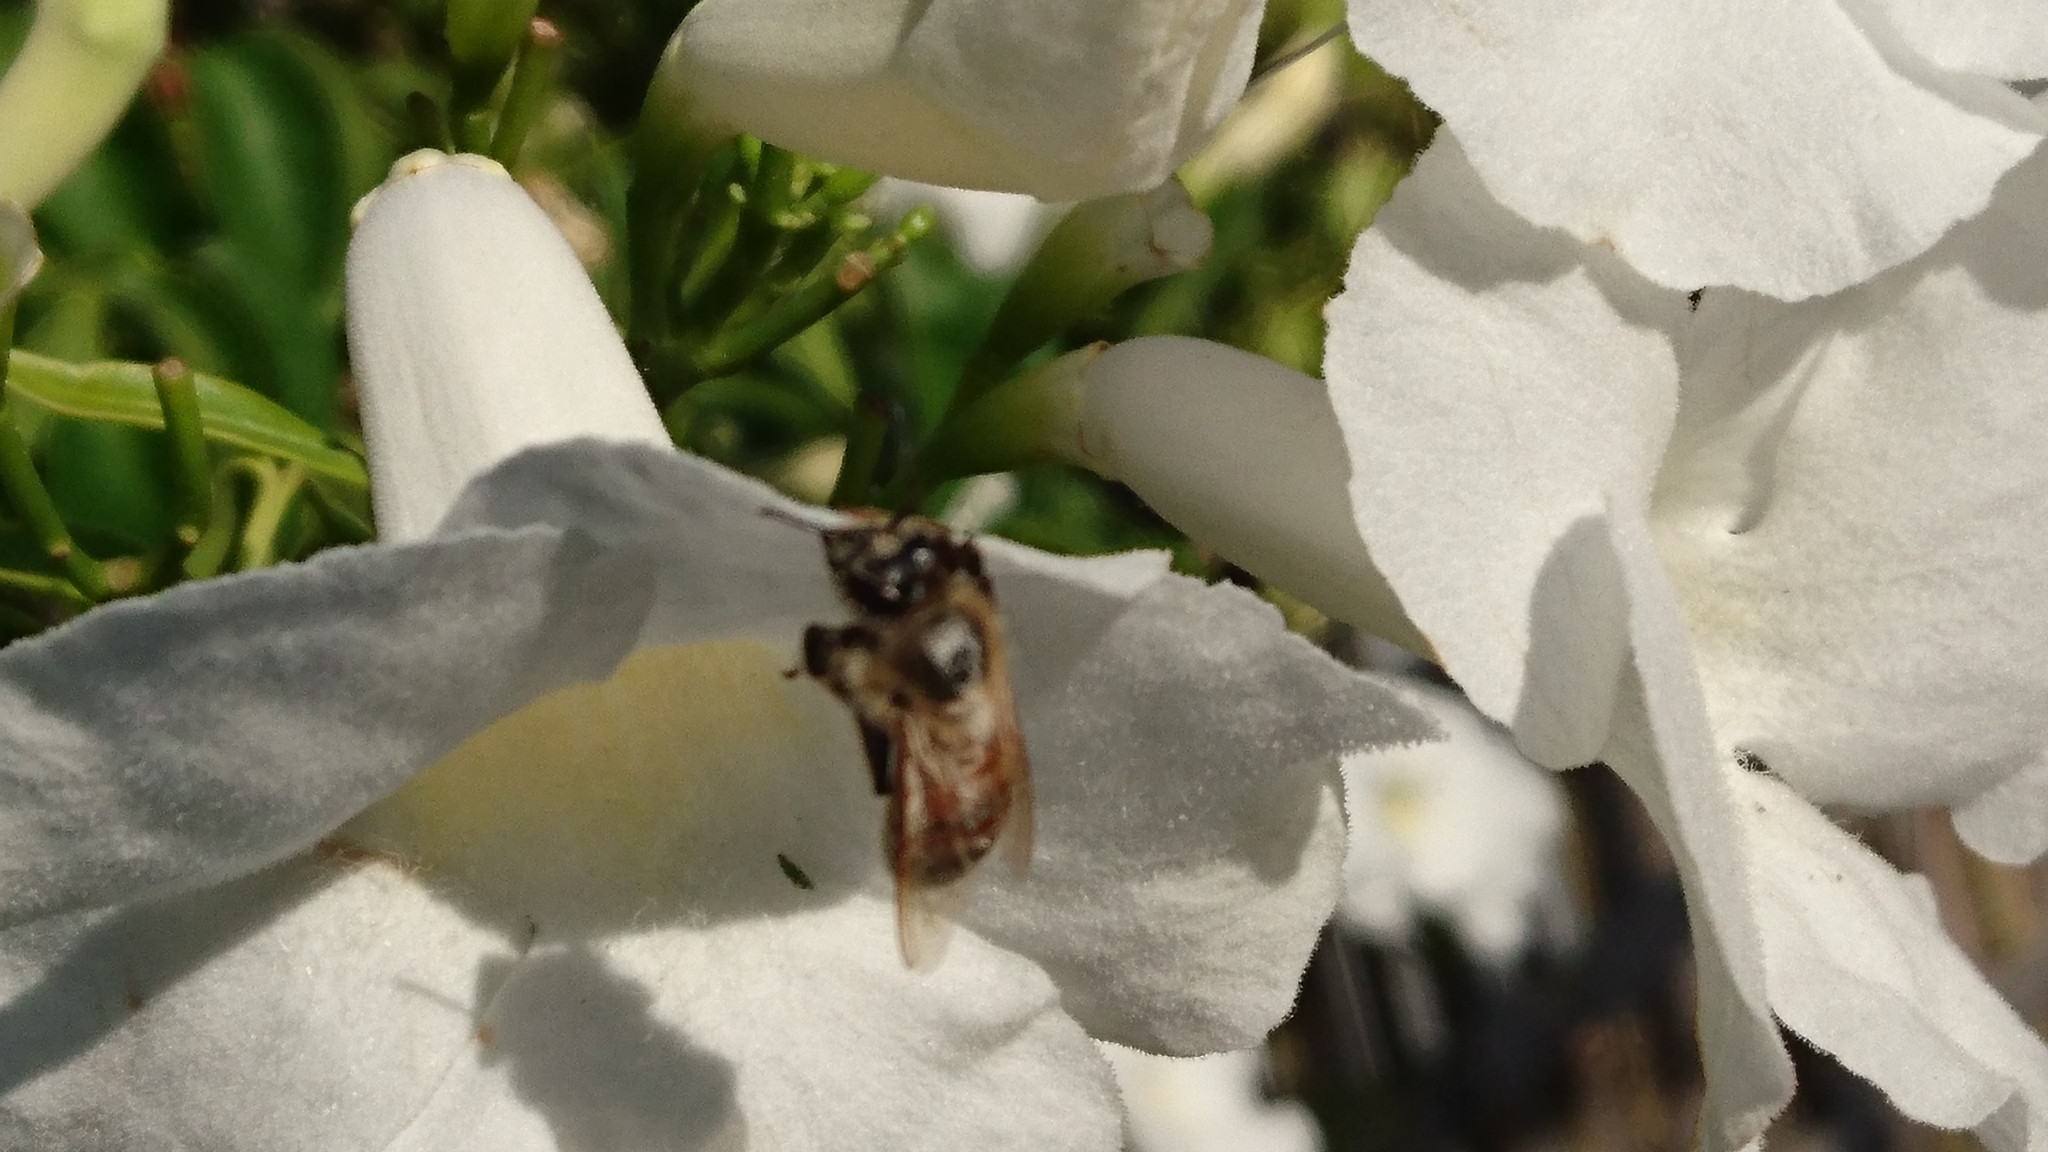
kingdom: Animalia
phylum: Arthropoda
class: Insecta
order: Hymenoptera
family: Apidae
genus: Apis
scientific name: Apis mellifera
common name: Honey bee
